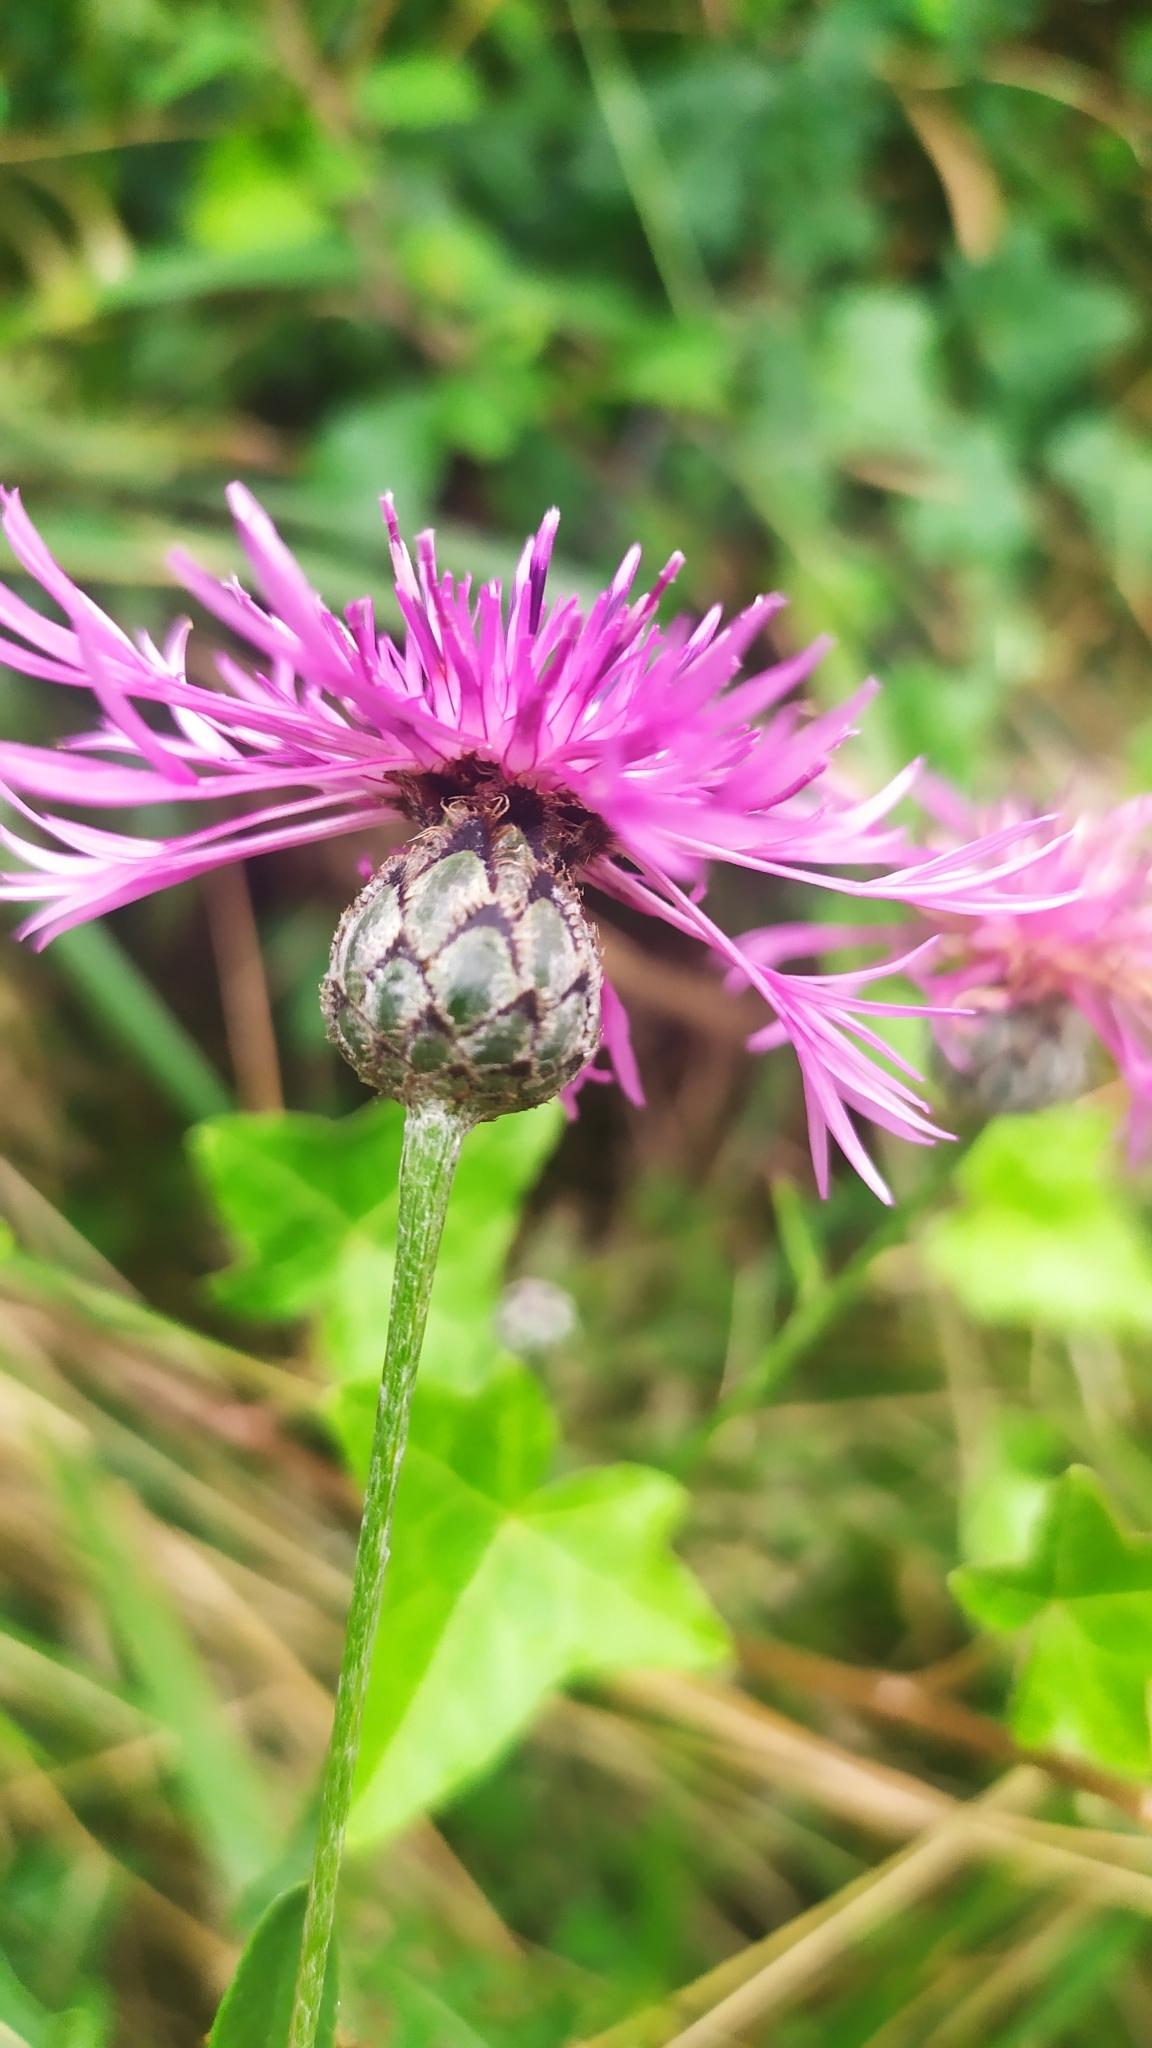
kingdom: Plantae
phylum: Tracheophyta
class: Magnoliopsida
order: Asterales
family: Asteraceae
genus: Centaurea
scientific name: Centaurea scabiosa
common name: Greater knapweed
